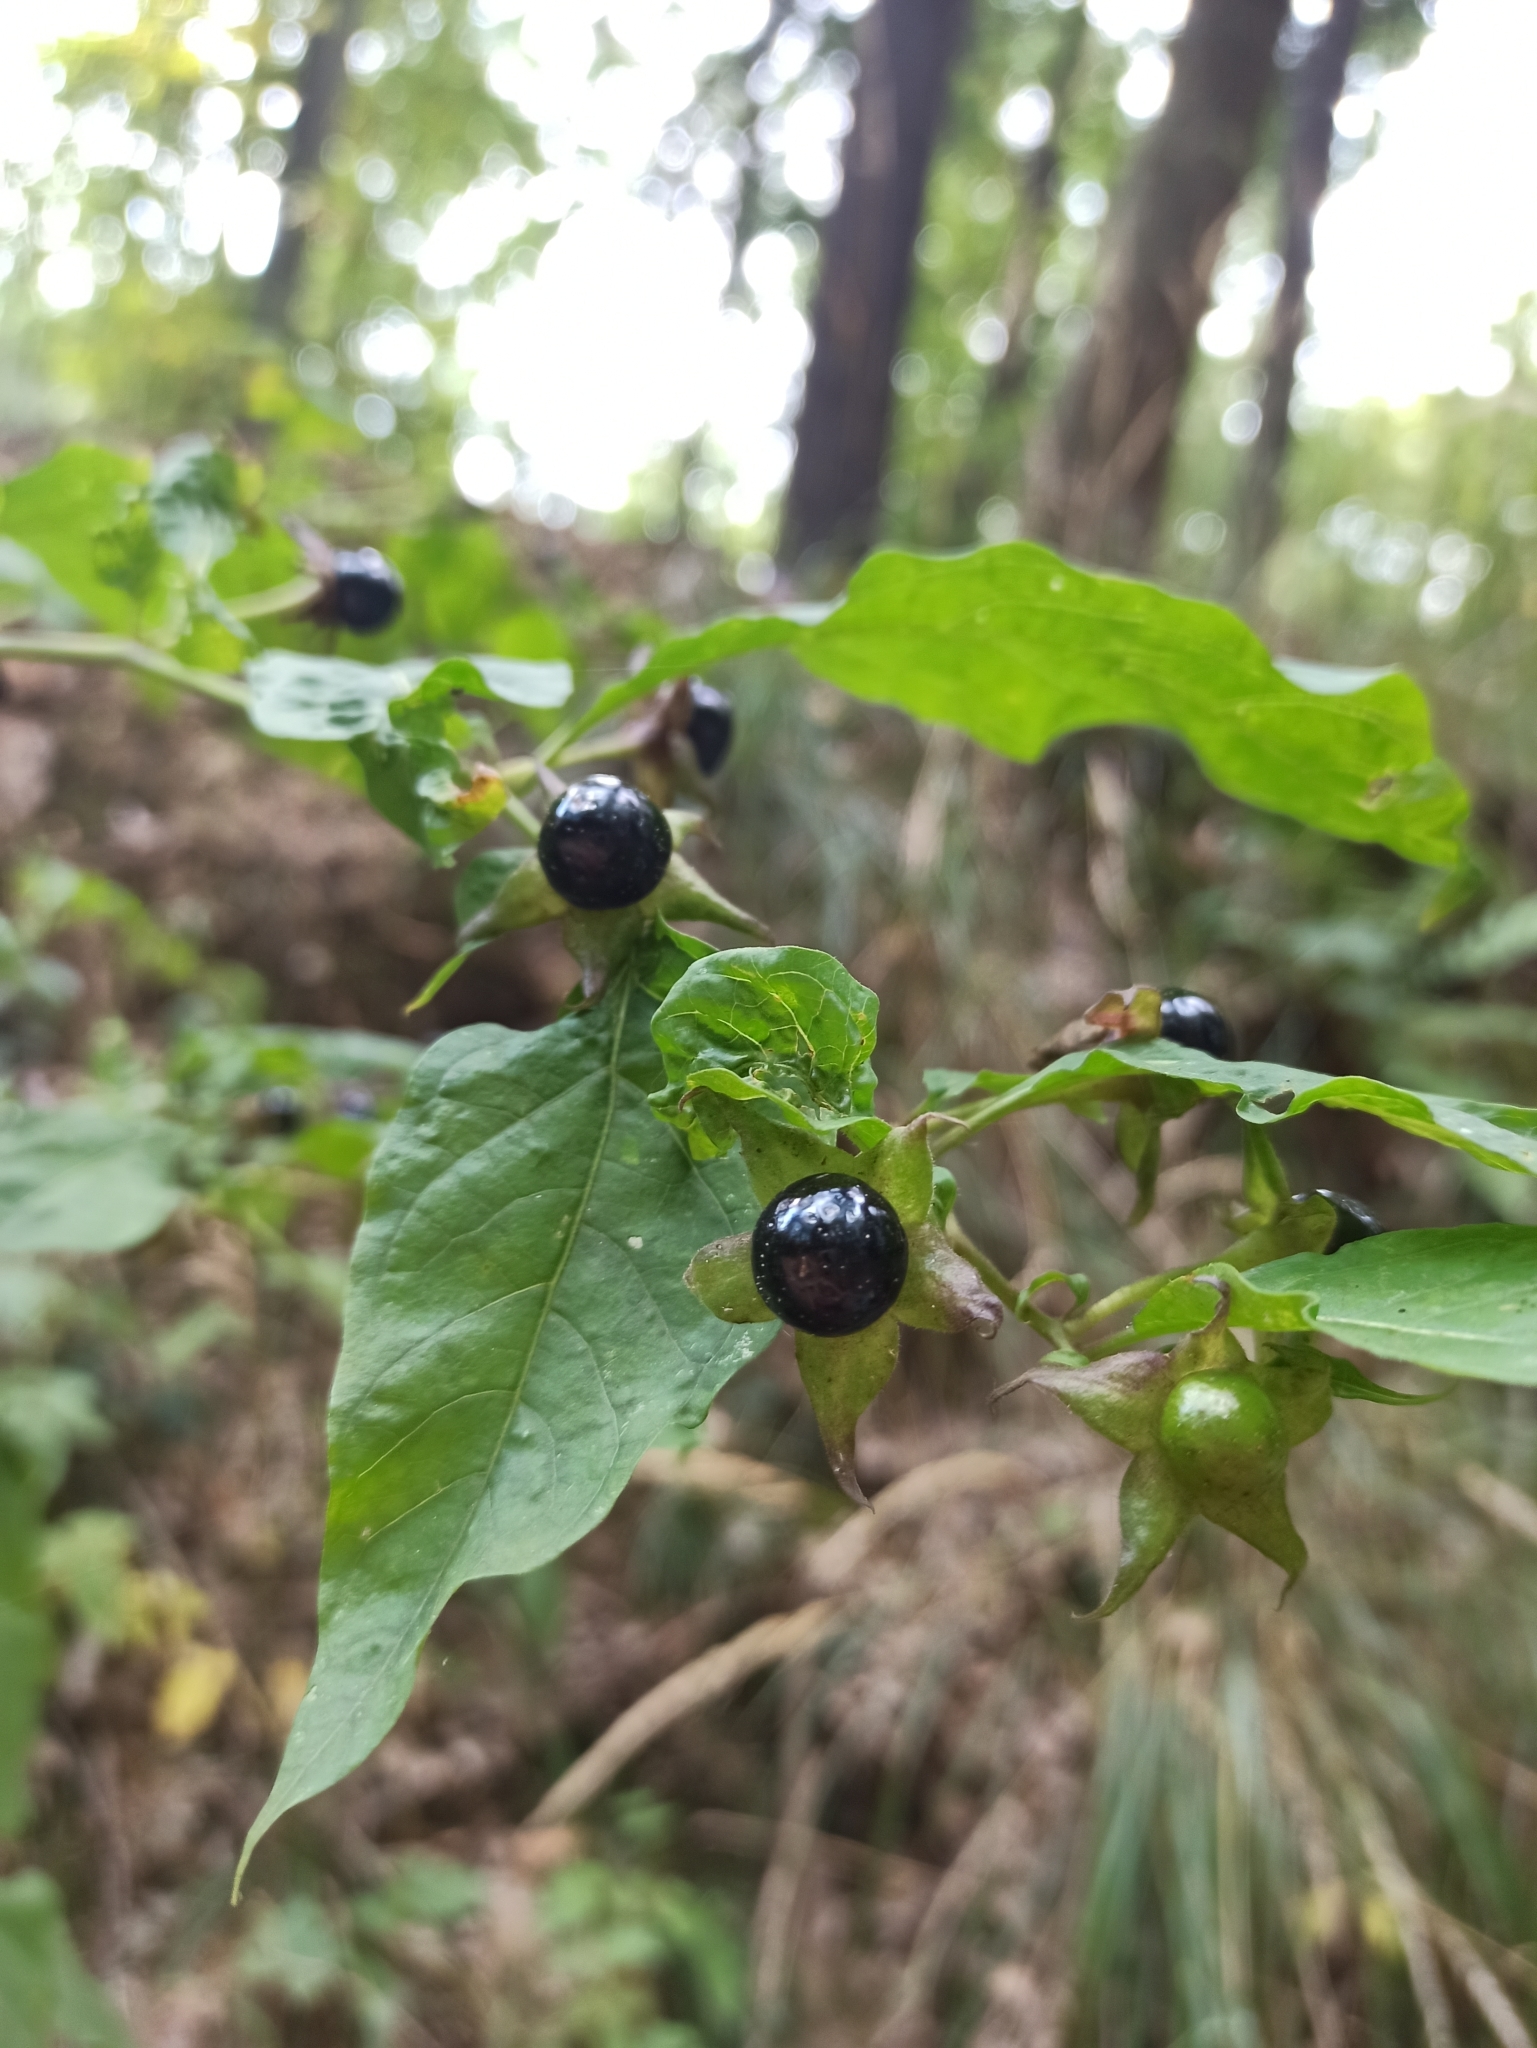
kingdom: Plantae
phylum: Tracheophyta
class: Magnoliopsida
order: Solanales
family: Solanaceae
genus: Atropa
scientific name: Atropa belladonna
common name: Deadly nightshade
